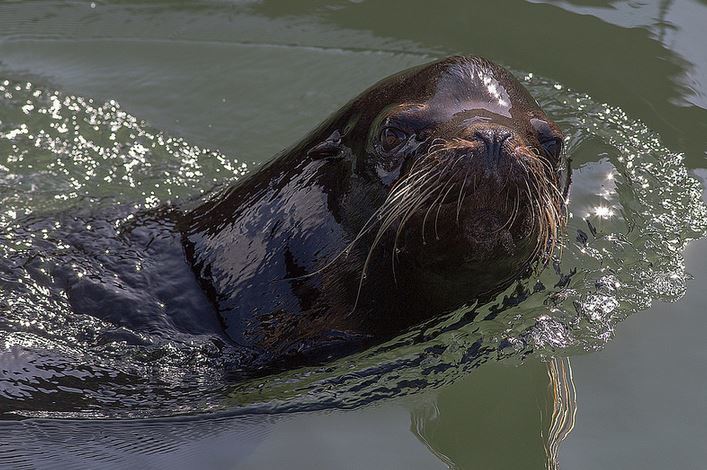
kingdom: Animalia
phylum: Chordata
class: Mammalia
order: Carnivora
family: Otariidae
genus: Zalophus
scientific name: Zalophus californianus
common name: California sea lion
